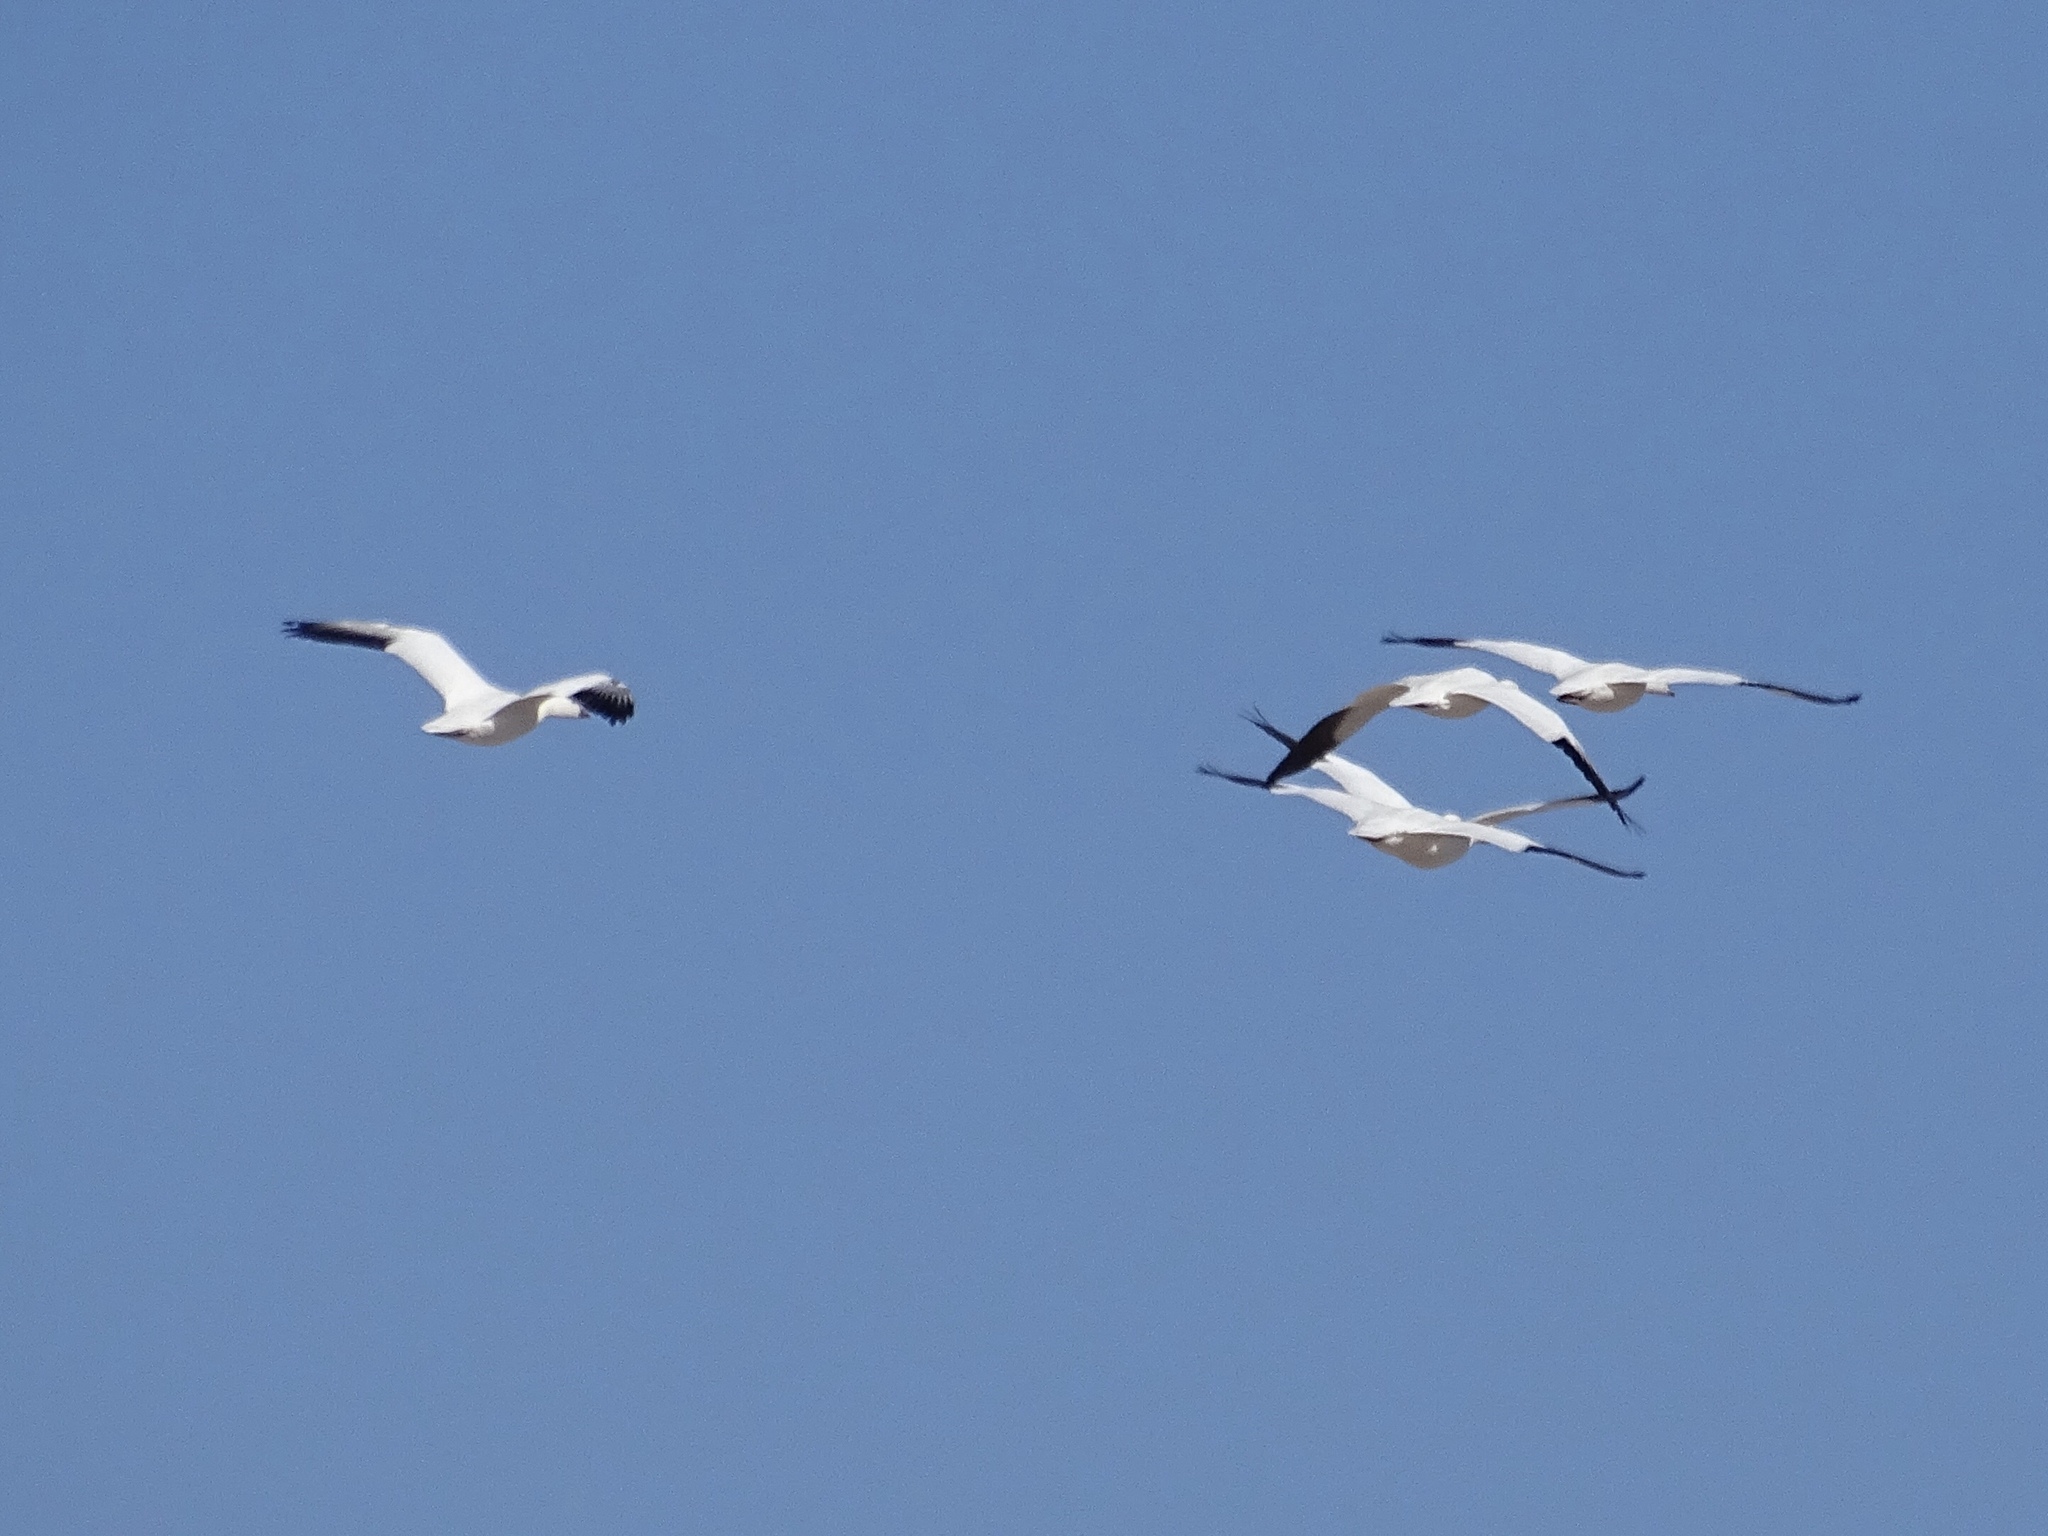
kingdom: Animalia
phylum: Chordata
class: Aves
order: Anseriformes
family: Anatidae
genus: Anser
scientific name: Anser caerulescens
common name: Snow goose
